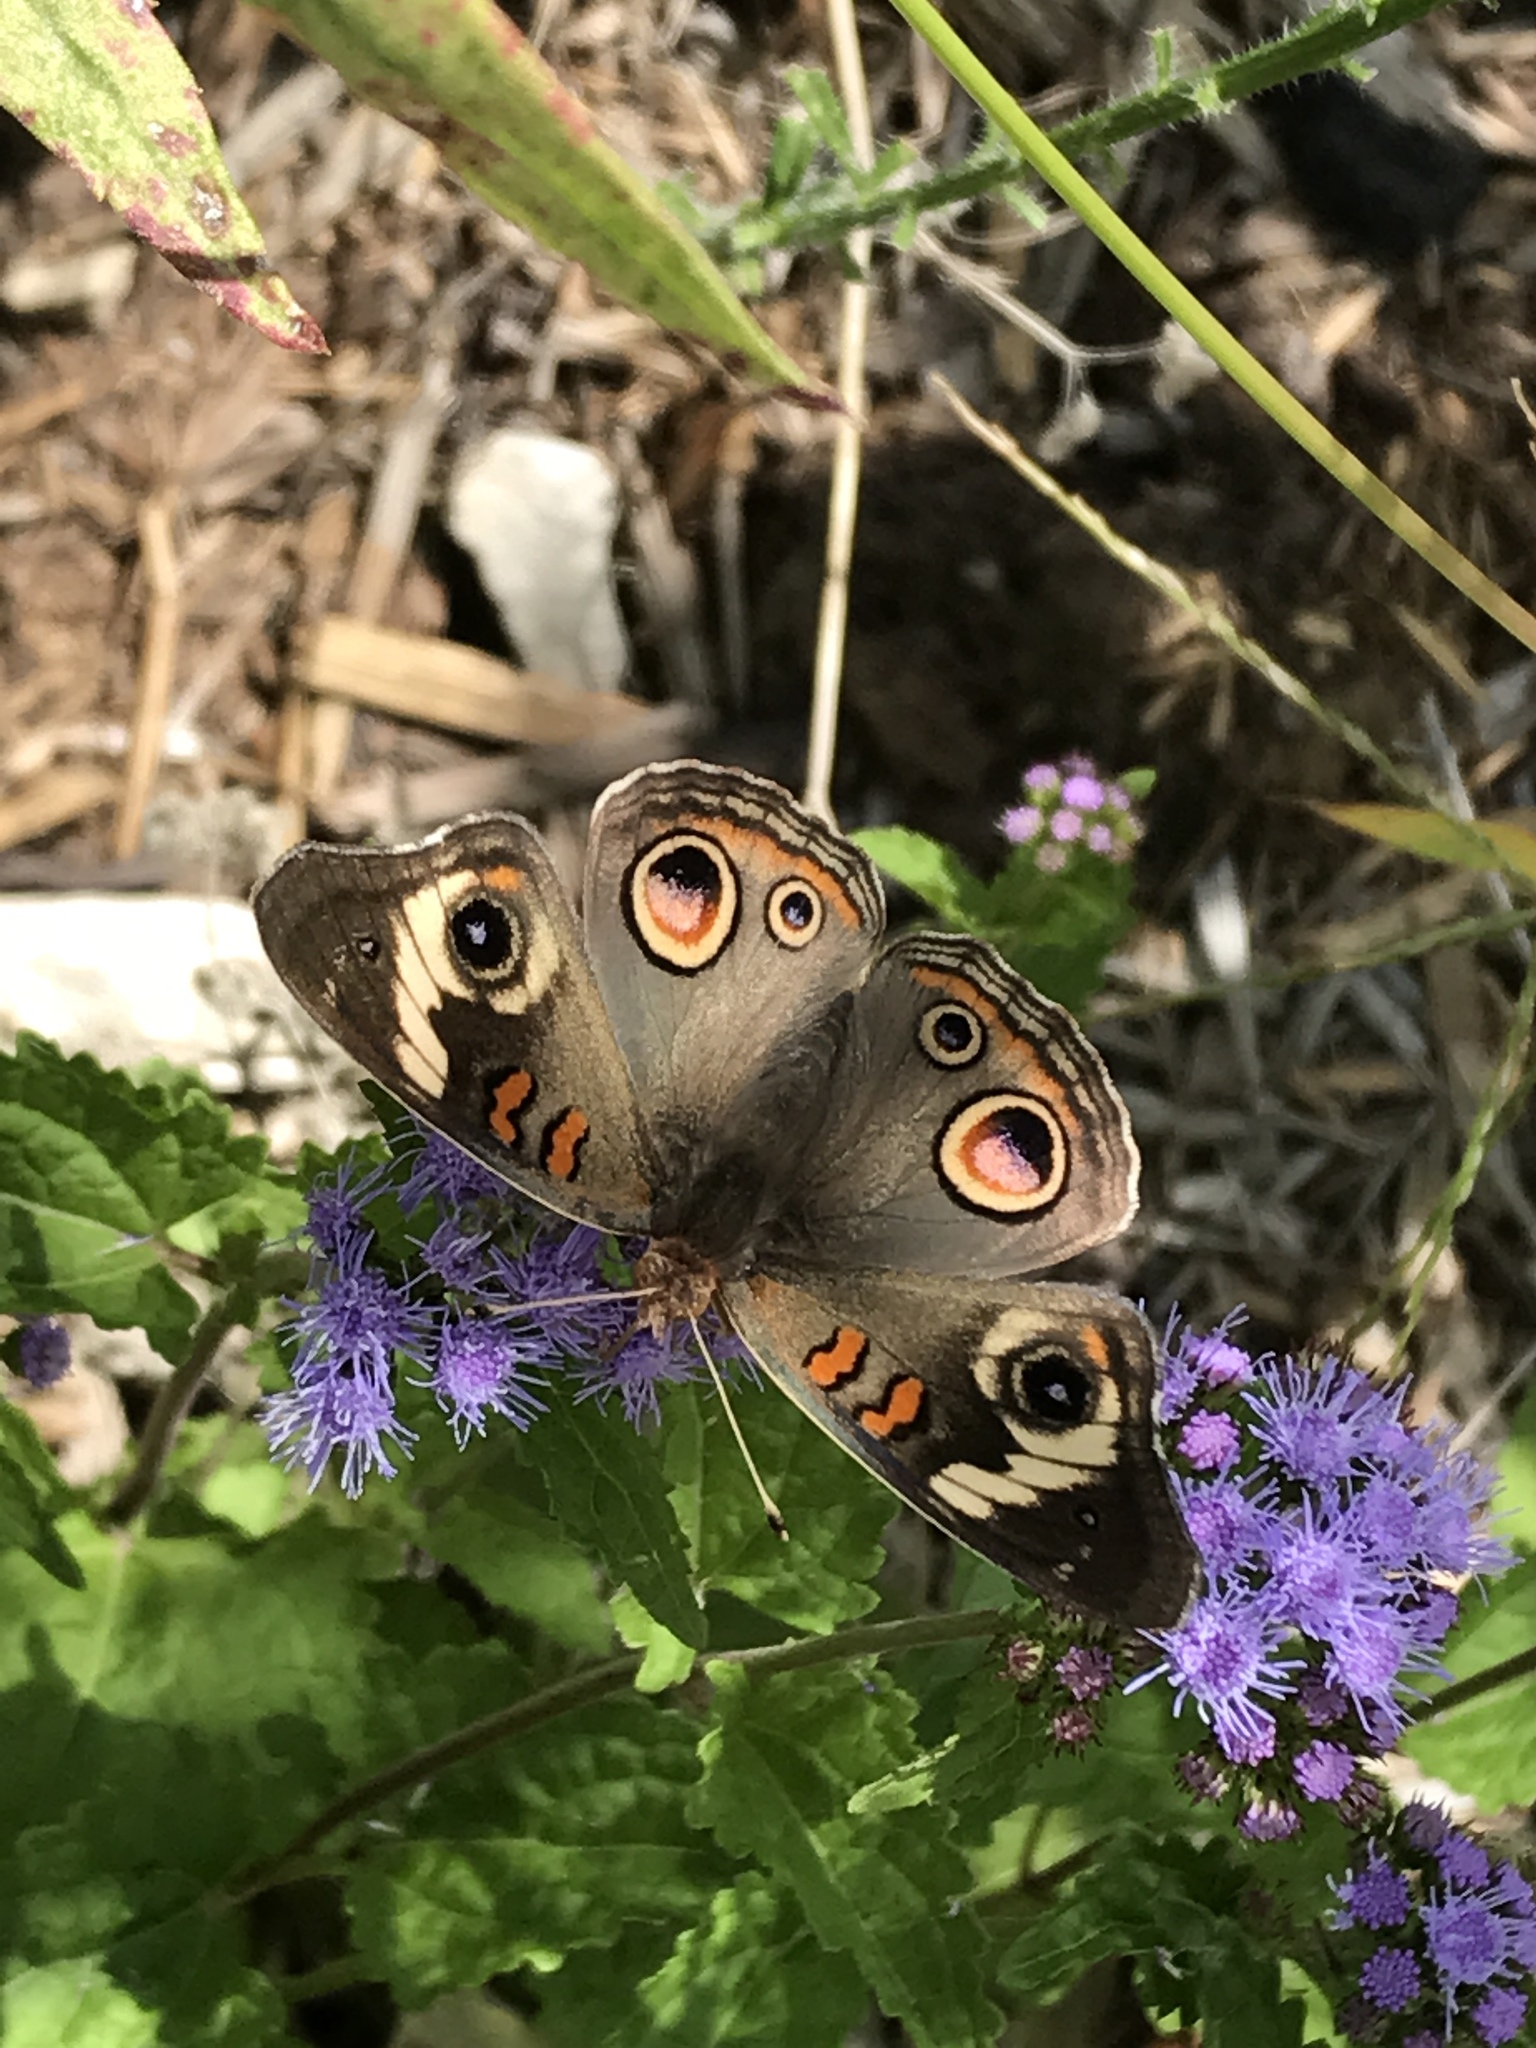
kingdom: Animalia
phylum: Arthropoda
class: Insecta
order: Lepidoptera
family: Nymphalidae
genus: Junonia
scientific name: Junonia coenia
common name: Common buckeye
